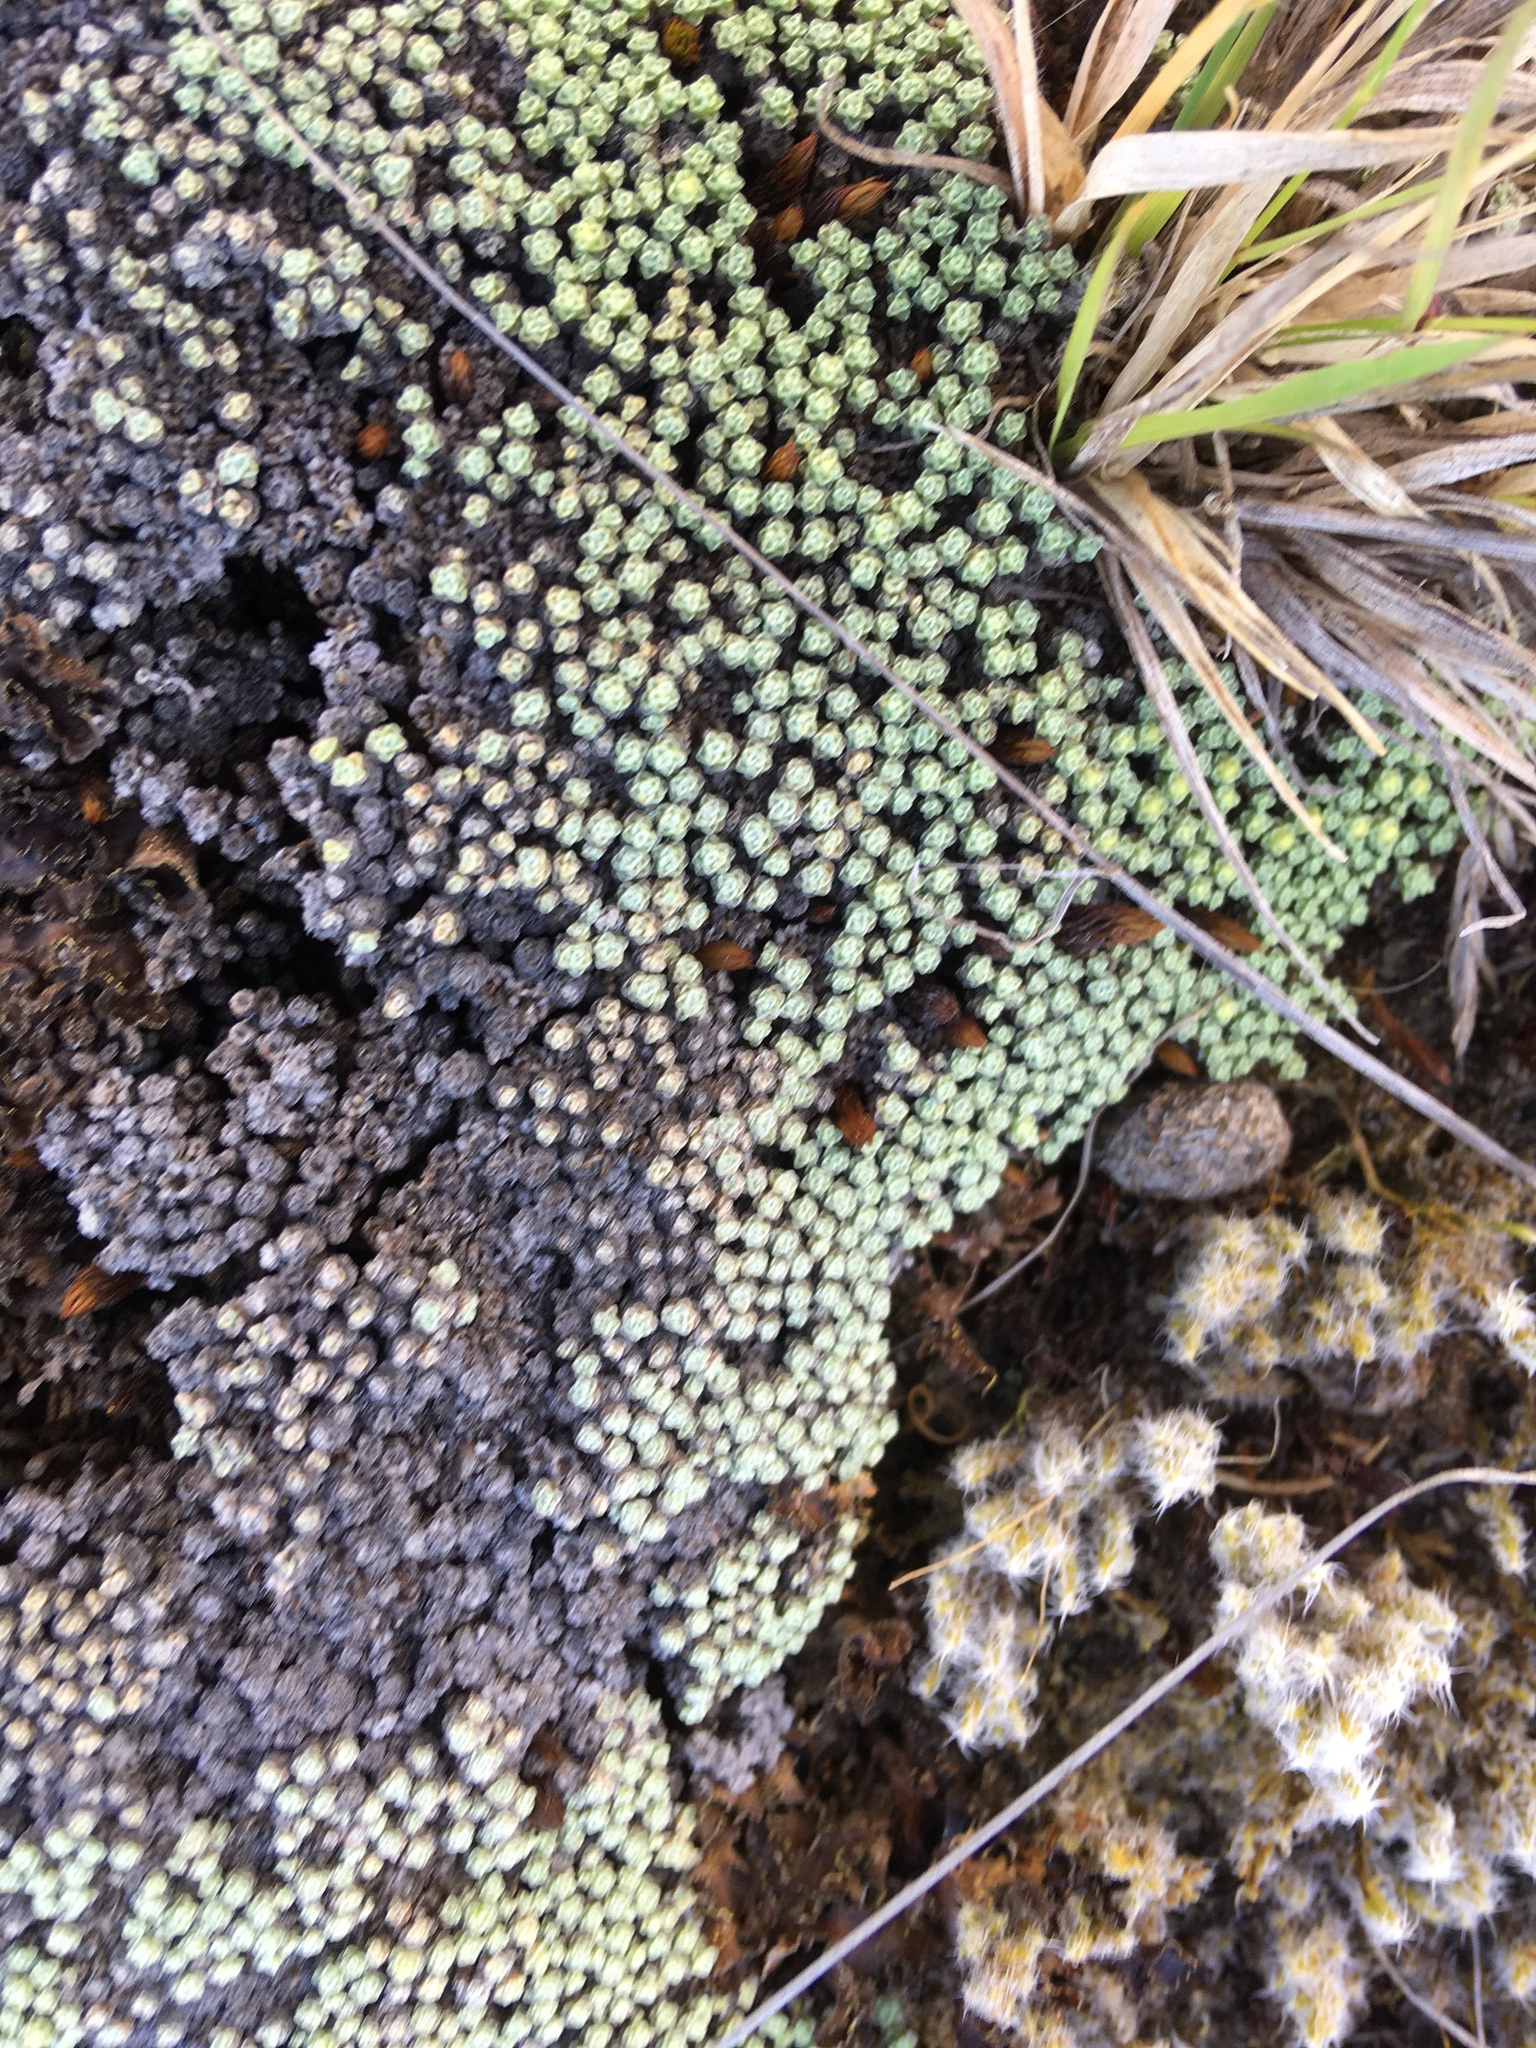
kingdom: Plantae
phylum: Tracheophyta
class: Magnoliopsida
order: Asterales
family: Asteraceae
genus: Raoulia
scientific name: Raoulia australis
